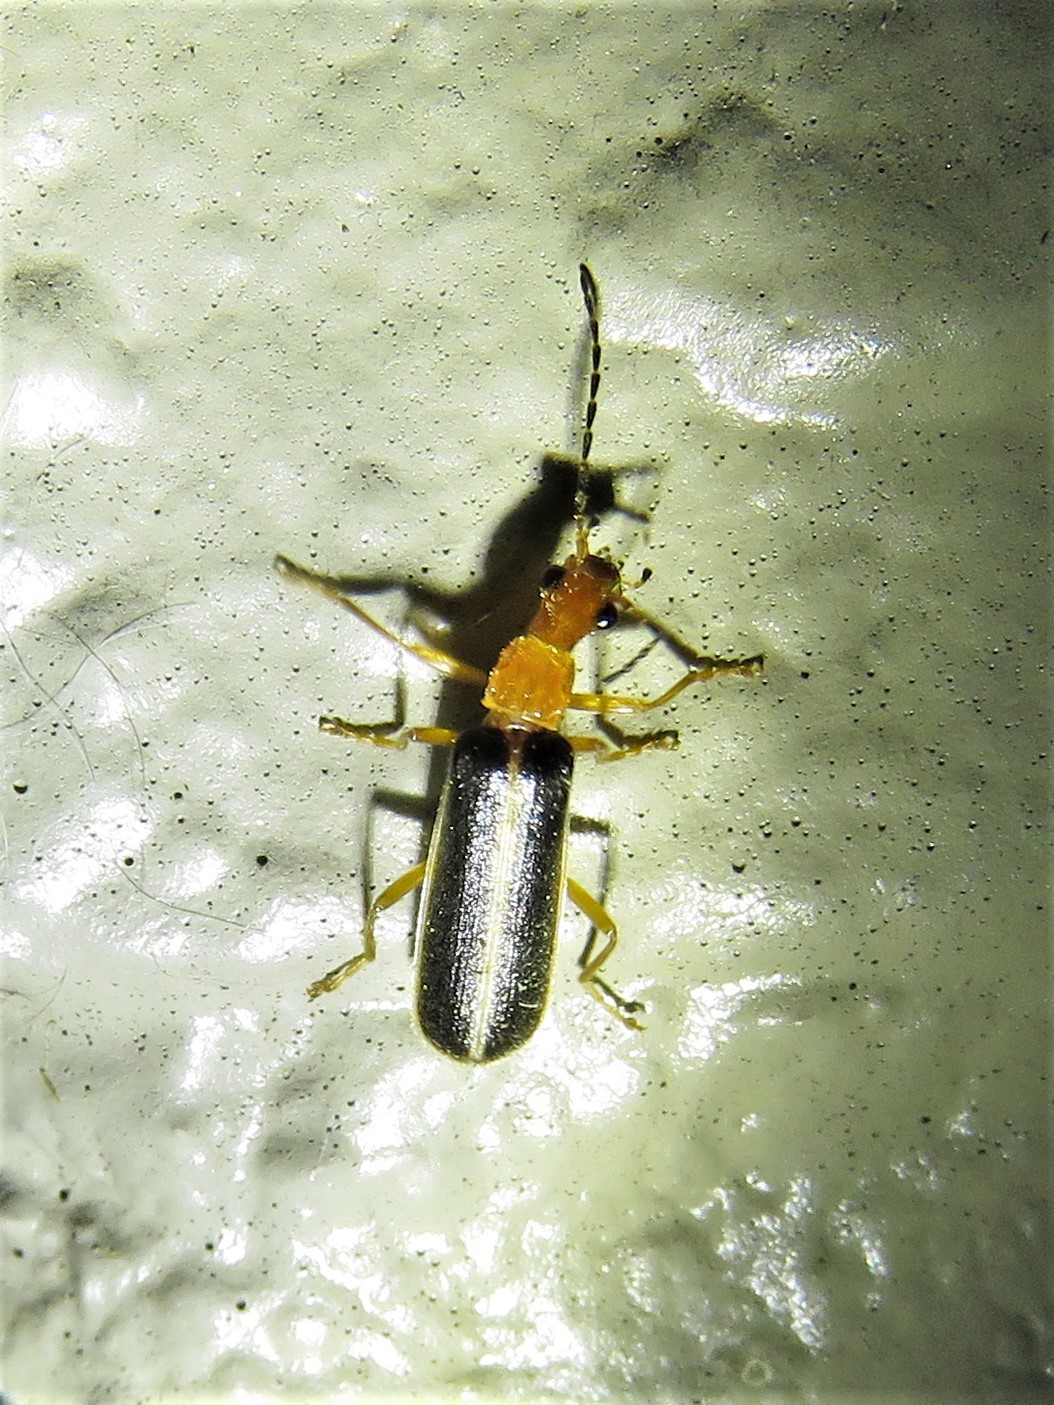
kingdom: Animalia
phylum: Arthropoda
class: Insecta
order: Coleoptera
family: Cantharidae
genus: Podabrus
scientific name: Podabrus brunnicollis
